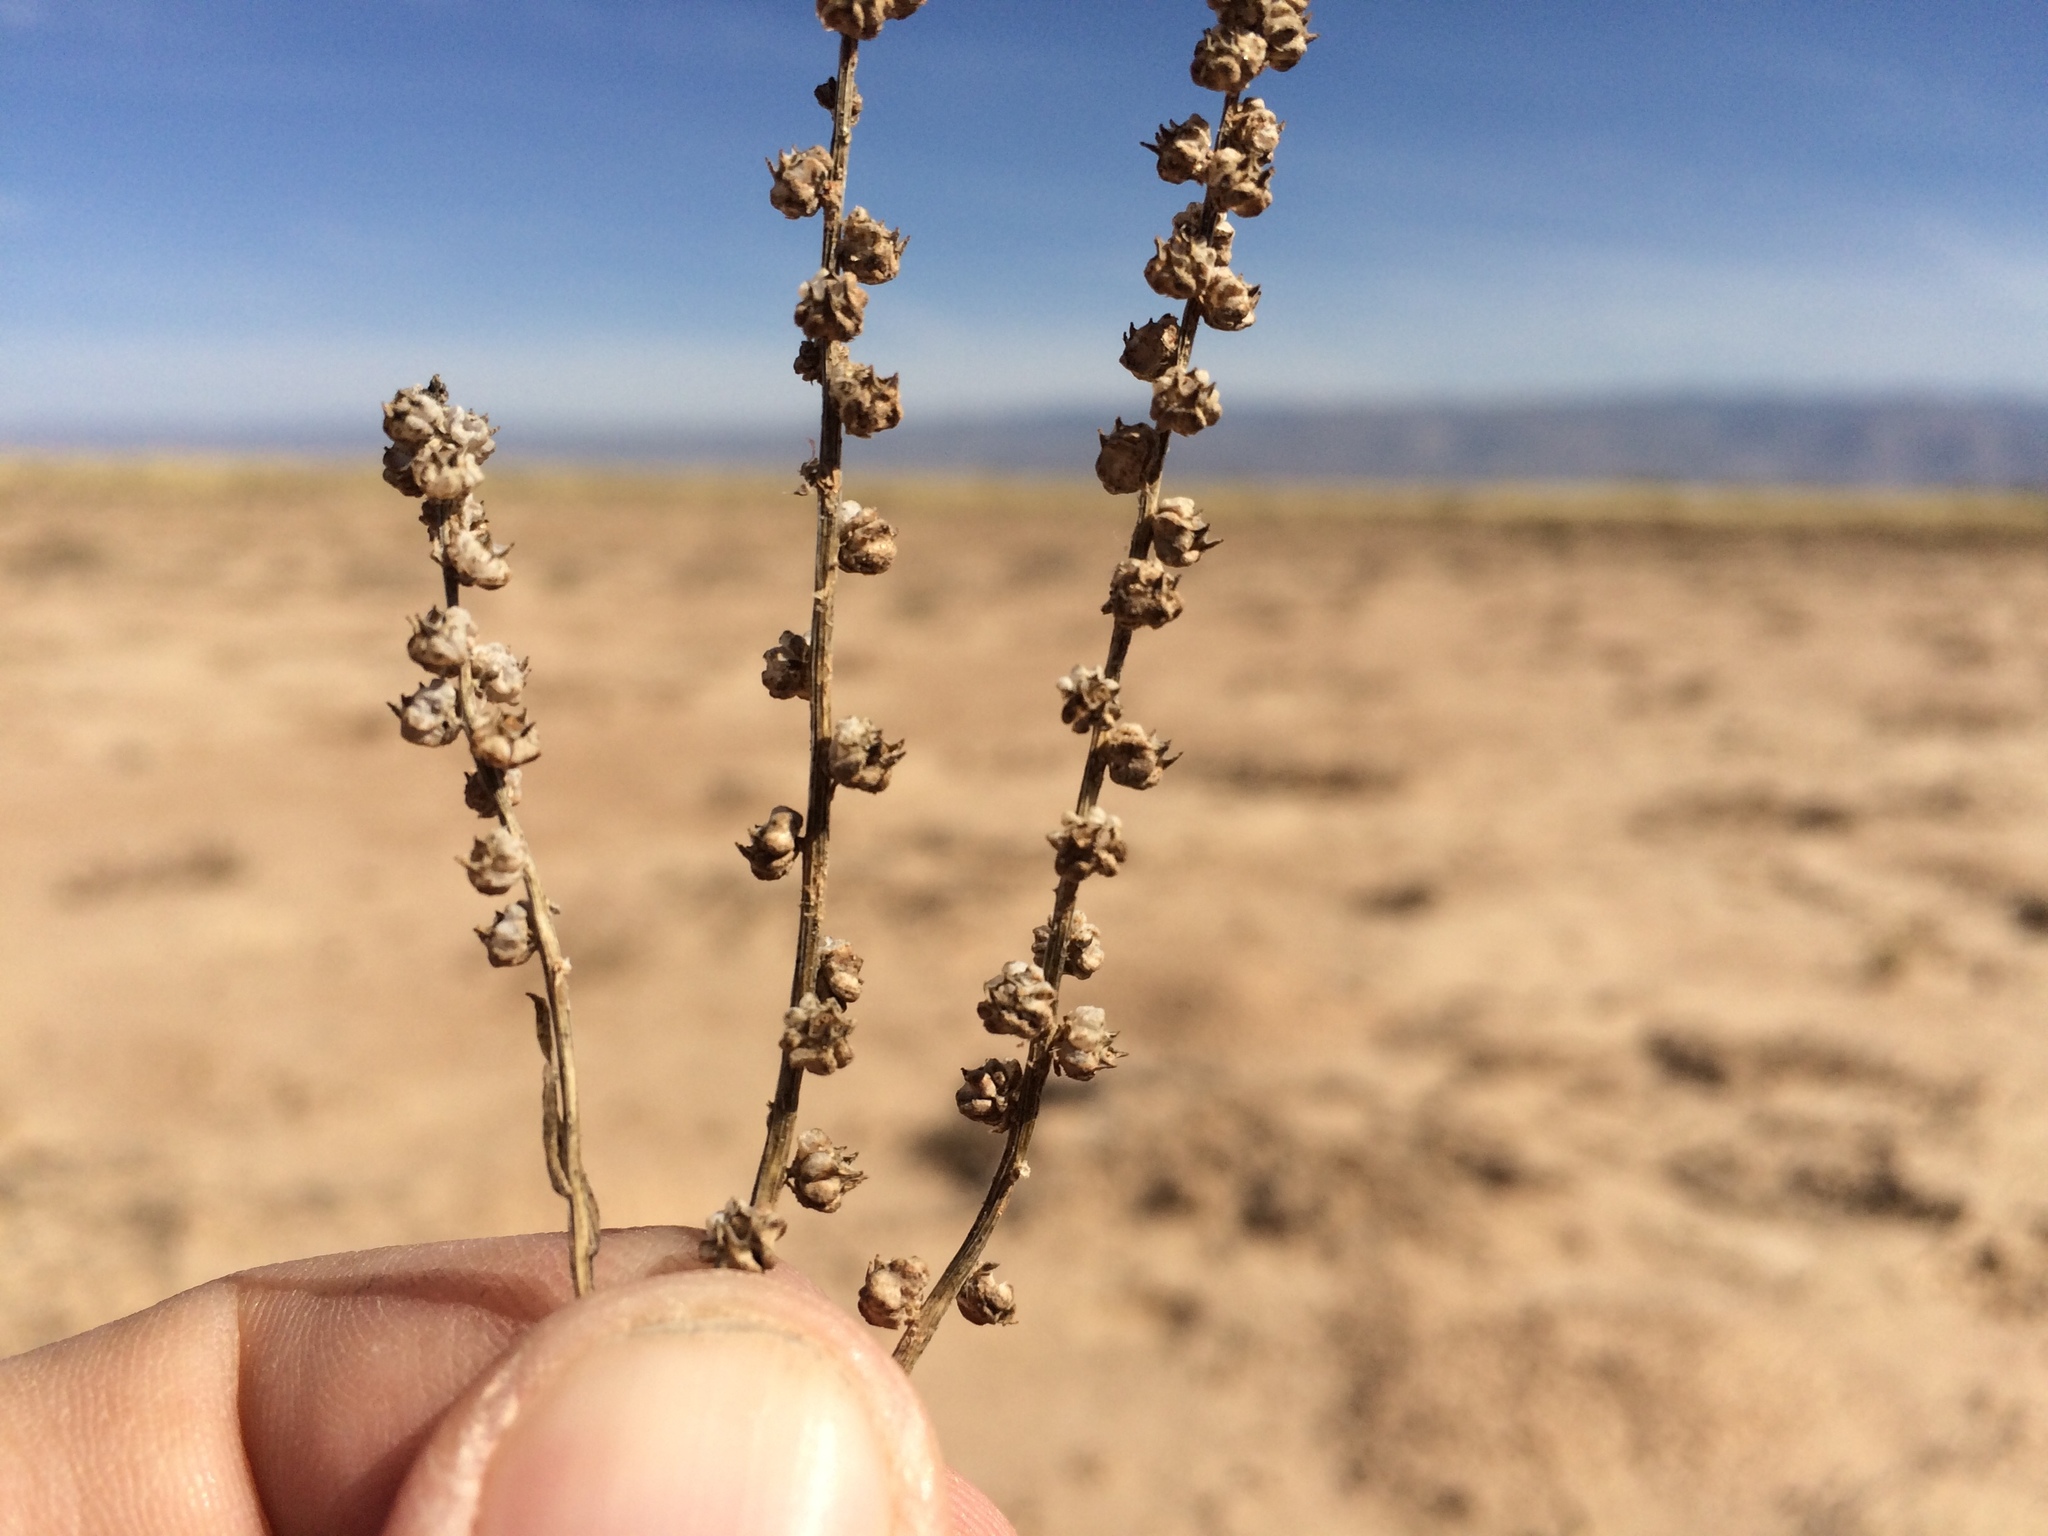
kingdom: Plantae
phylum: Tracheophyta
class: Magnoliopsida
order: Brassicales
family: Resedaceae
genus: Oligomeris
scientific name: Oligomeris linifolia
